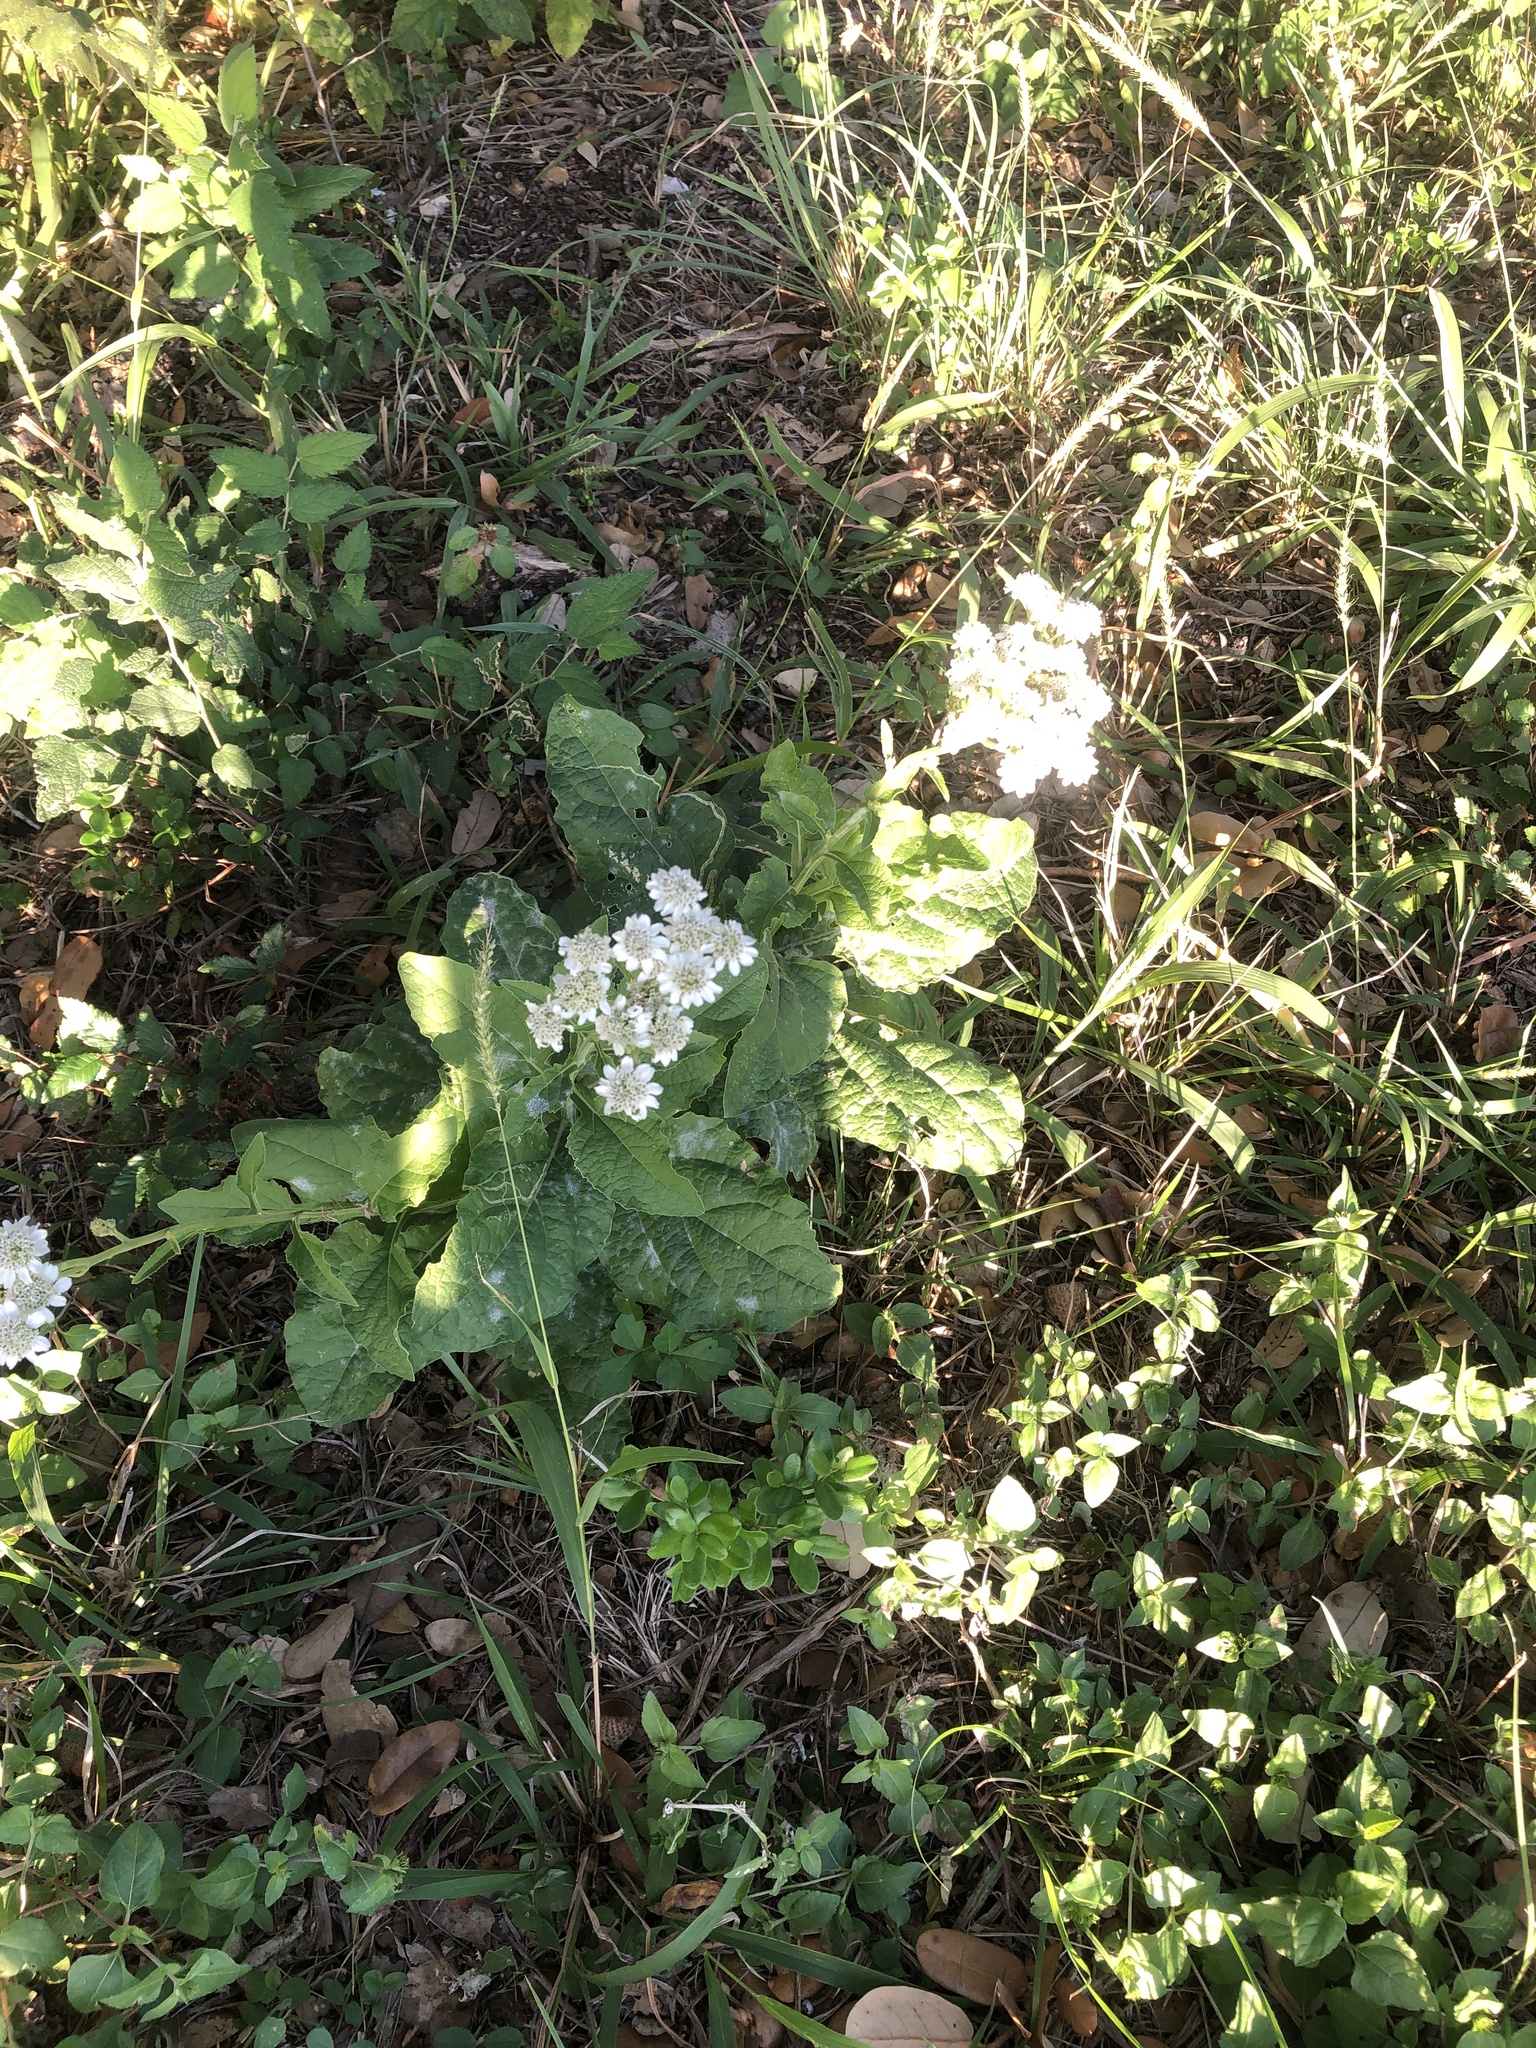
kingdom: Plantae
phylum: Tracheophyta
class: Magnoliopsida
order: Asterales
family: Asteraceae
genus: Verbesina
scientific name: Verbesina microptera
